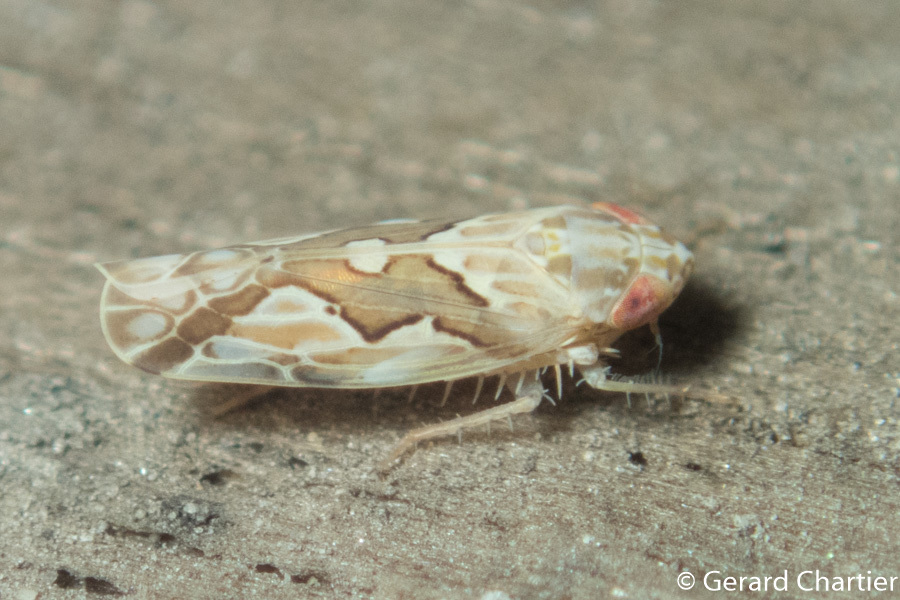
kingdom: Animalia
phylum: Arthropoda
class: Insecta
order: Hemiptera
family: Cicadellidae
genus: Maiestas
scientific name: Maiestas dorsalis
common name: Zig-zag leafhopper
